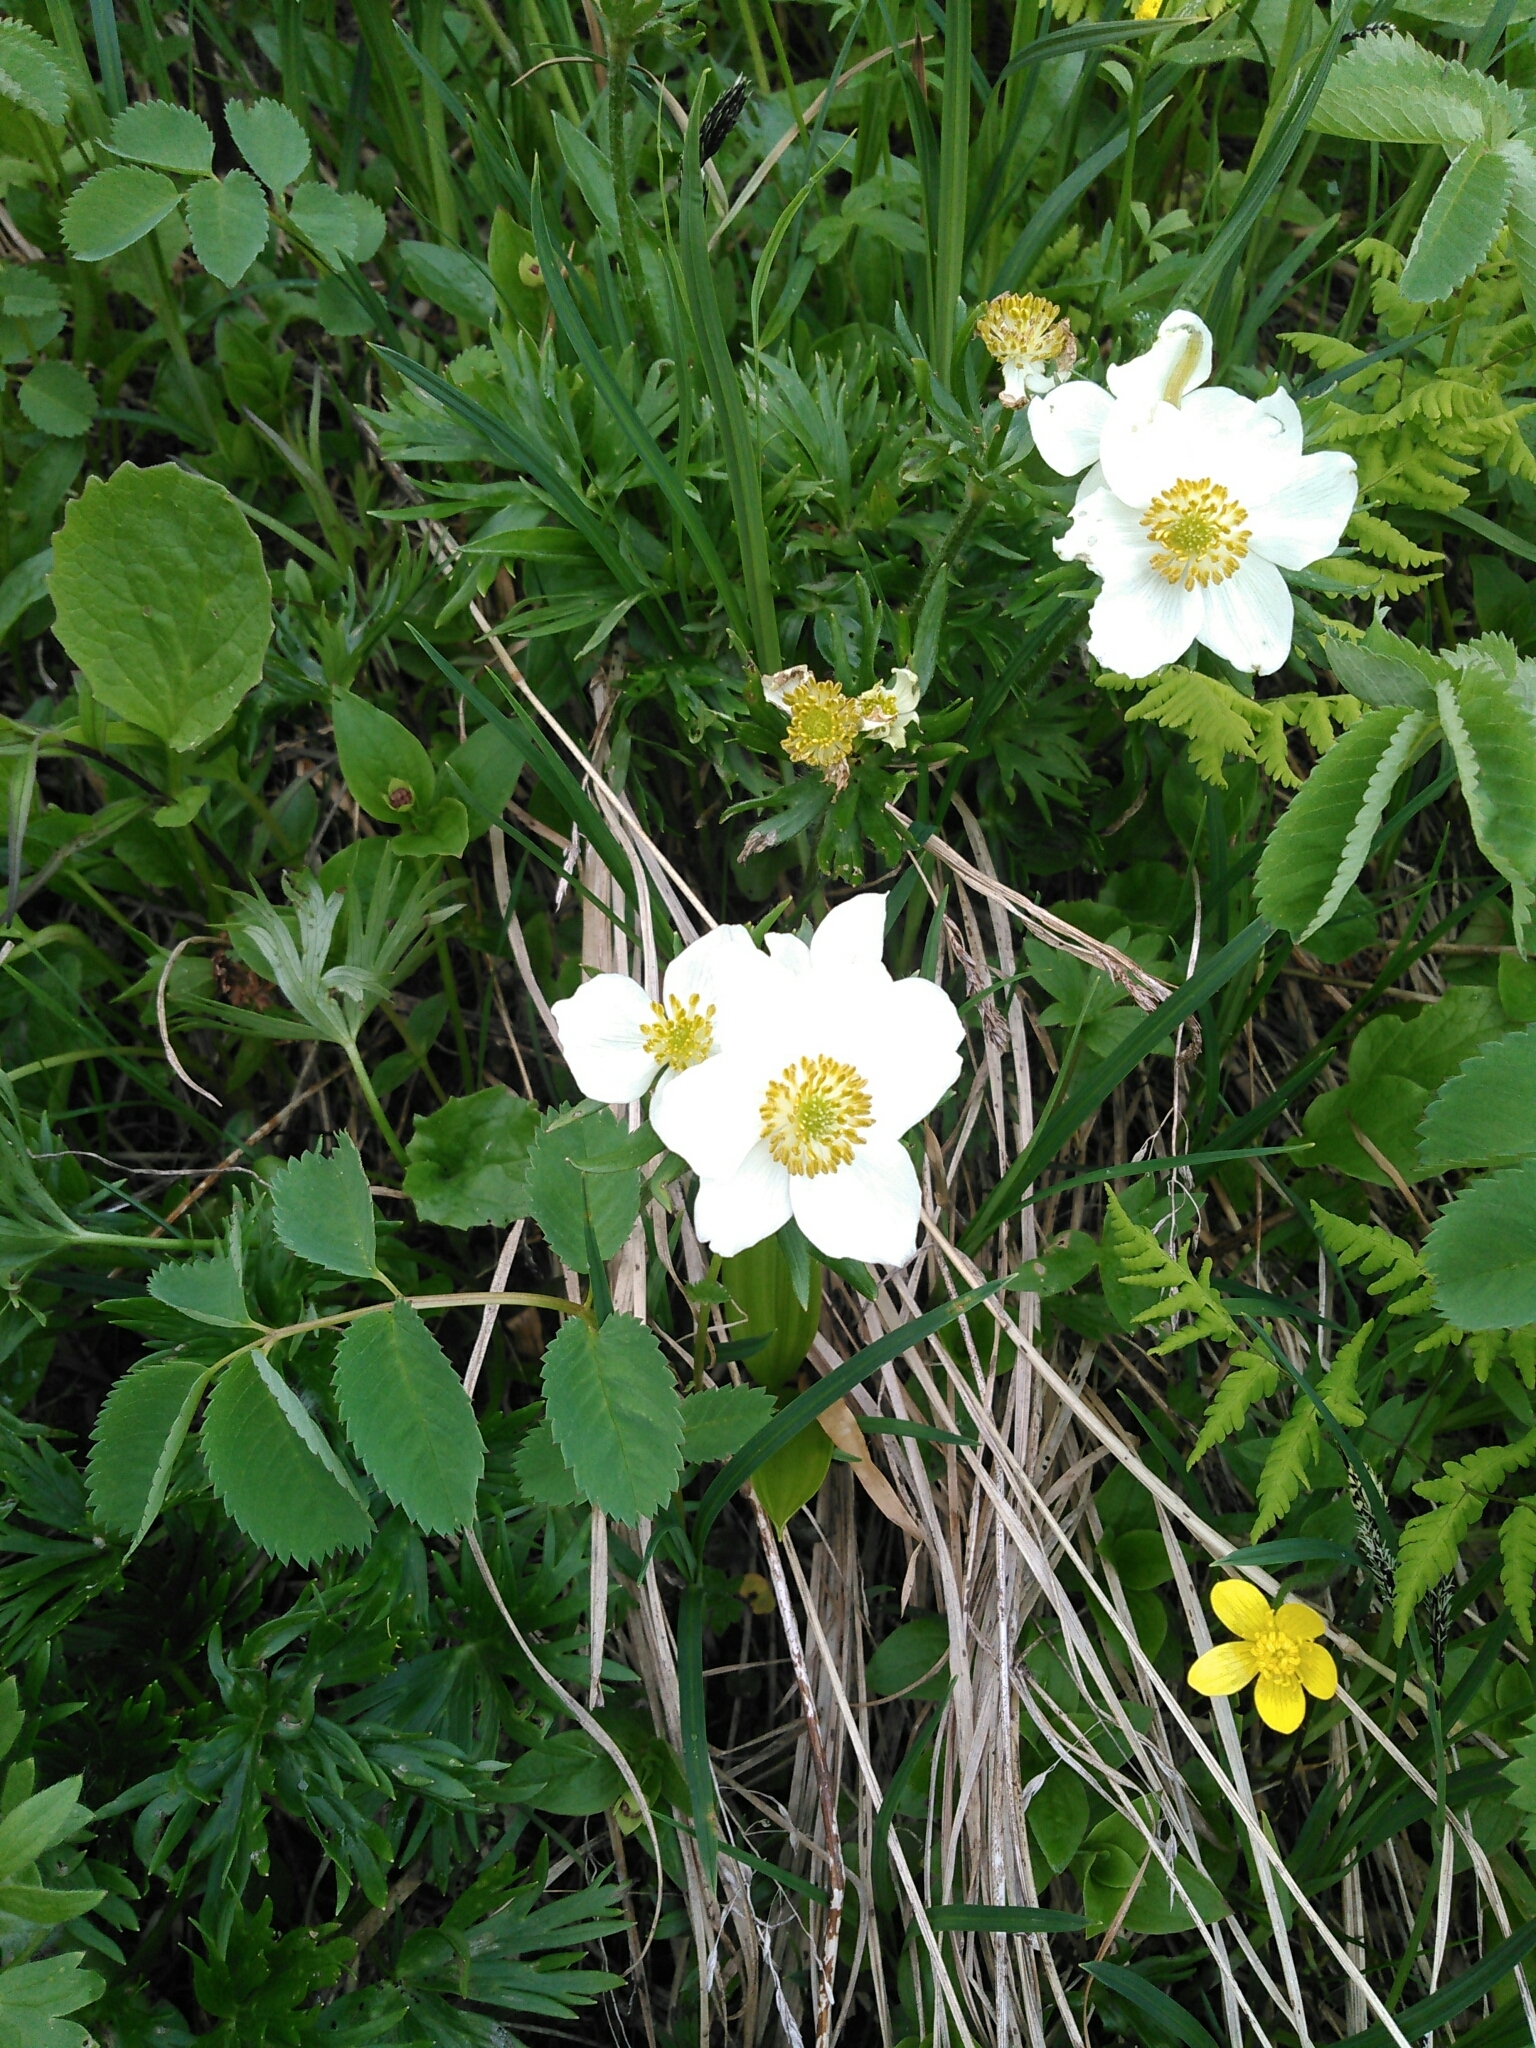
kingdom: Plantae
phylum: Tracheophyta
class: Magnoliopsida
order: Ranunculales
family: Ranunculaceae
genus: Anemonastrum
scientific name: Anemonastrum narcissiflorum
